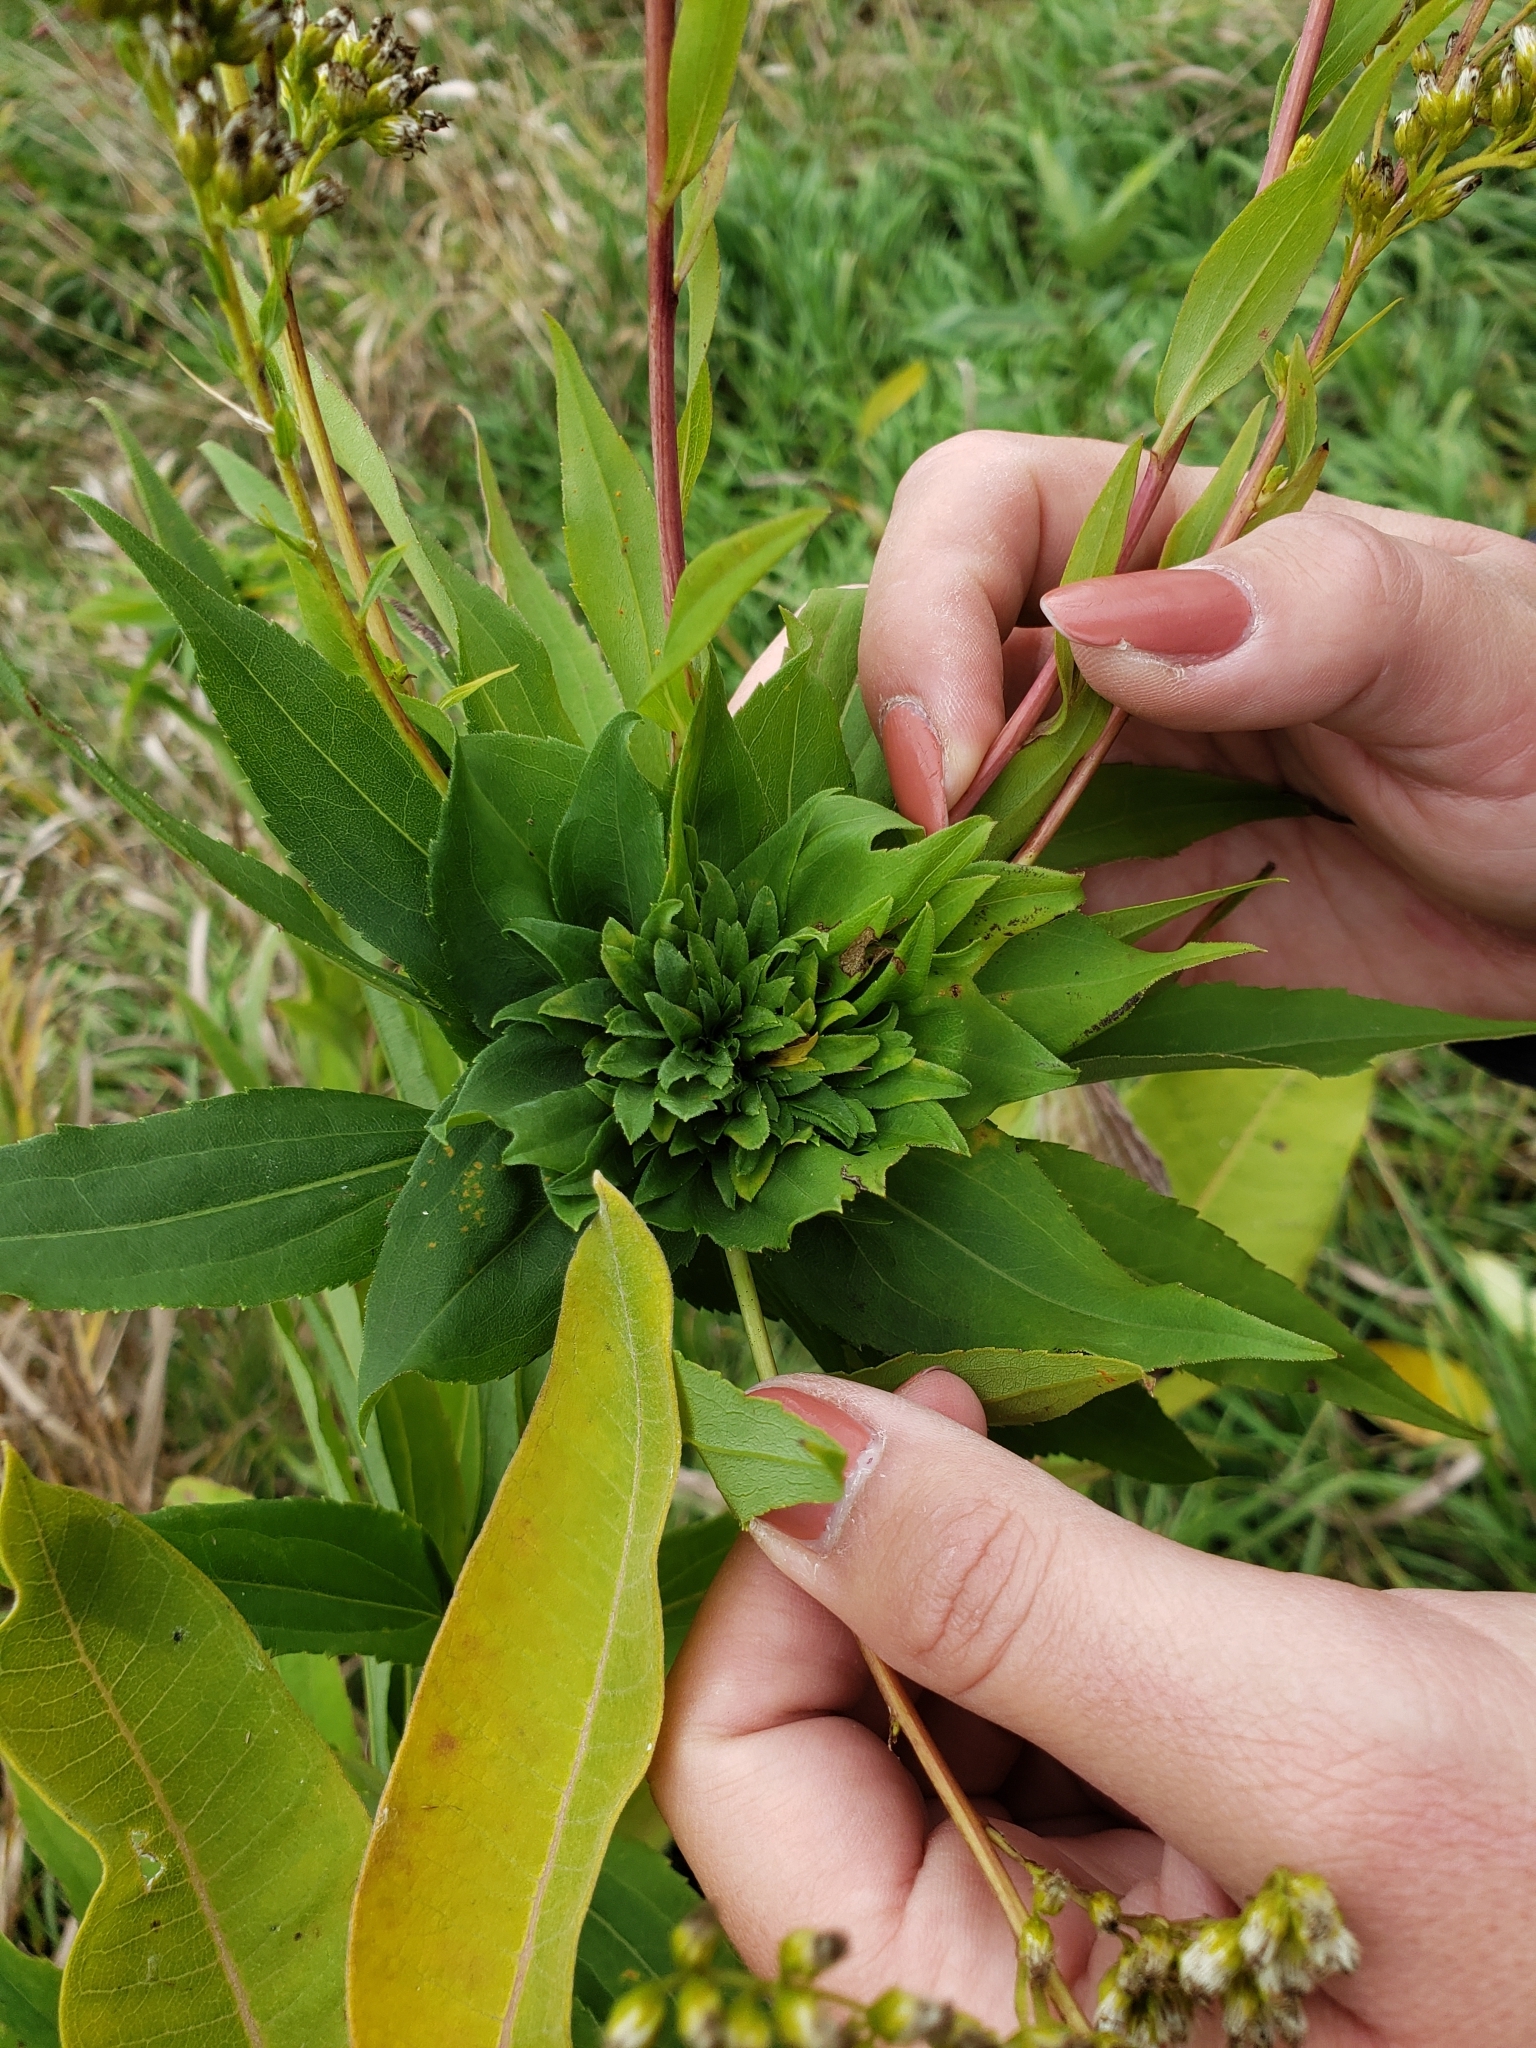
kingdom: Animalia
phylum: Arthropoda
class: Insecta
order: Diptera
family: Cecidomyiidae
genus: Rhopalomyia
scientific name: Rhopalomyia capitata
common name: Giant goldenrod bunch gall midge
